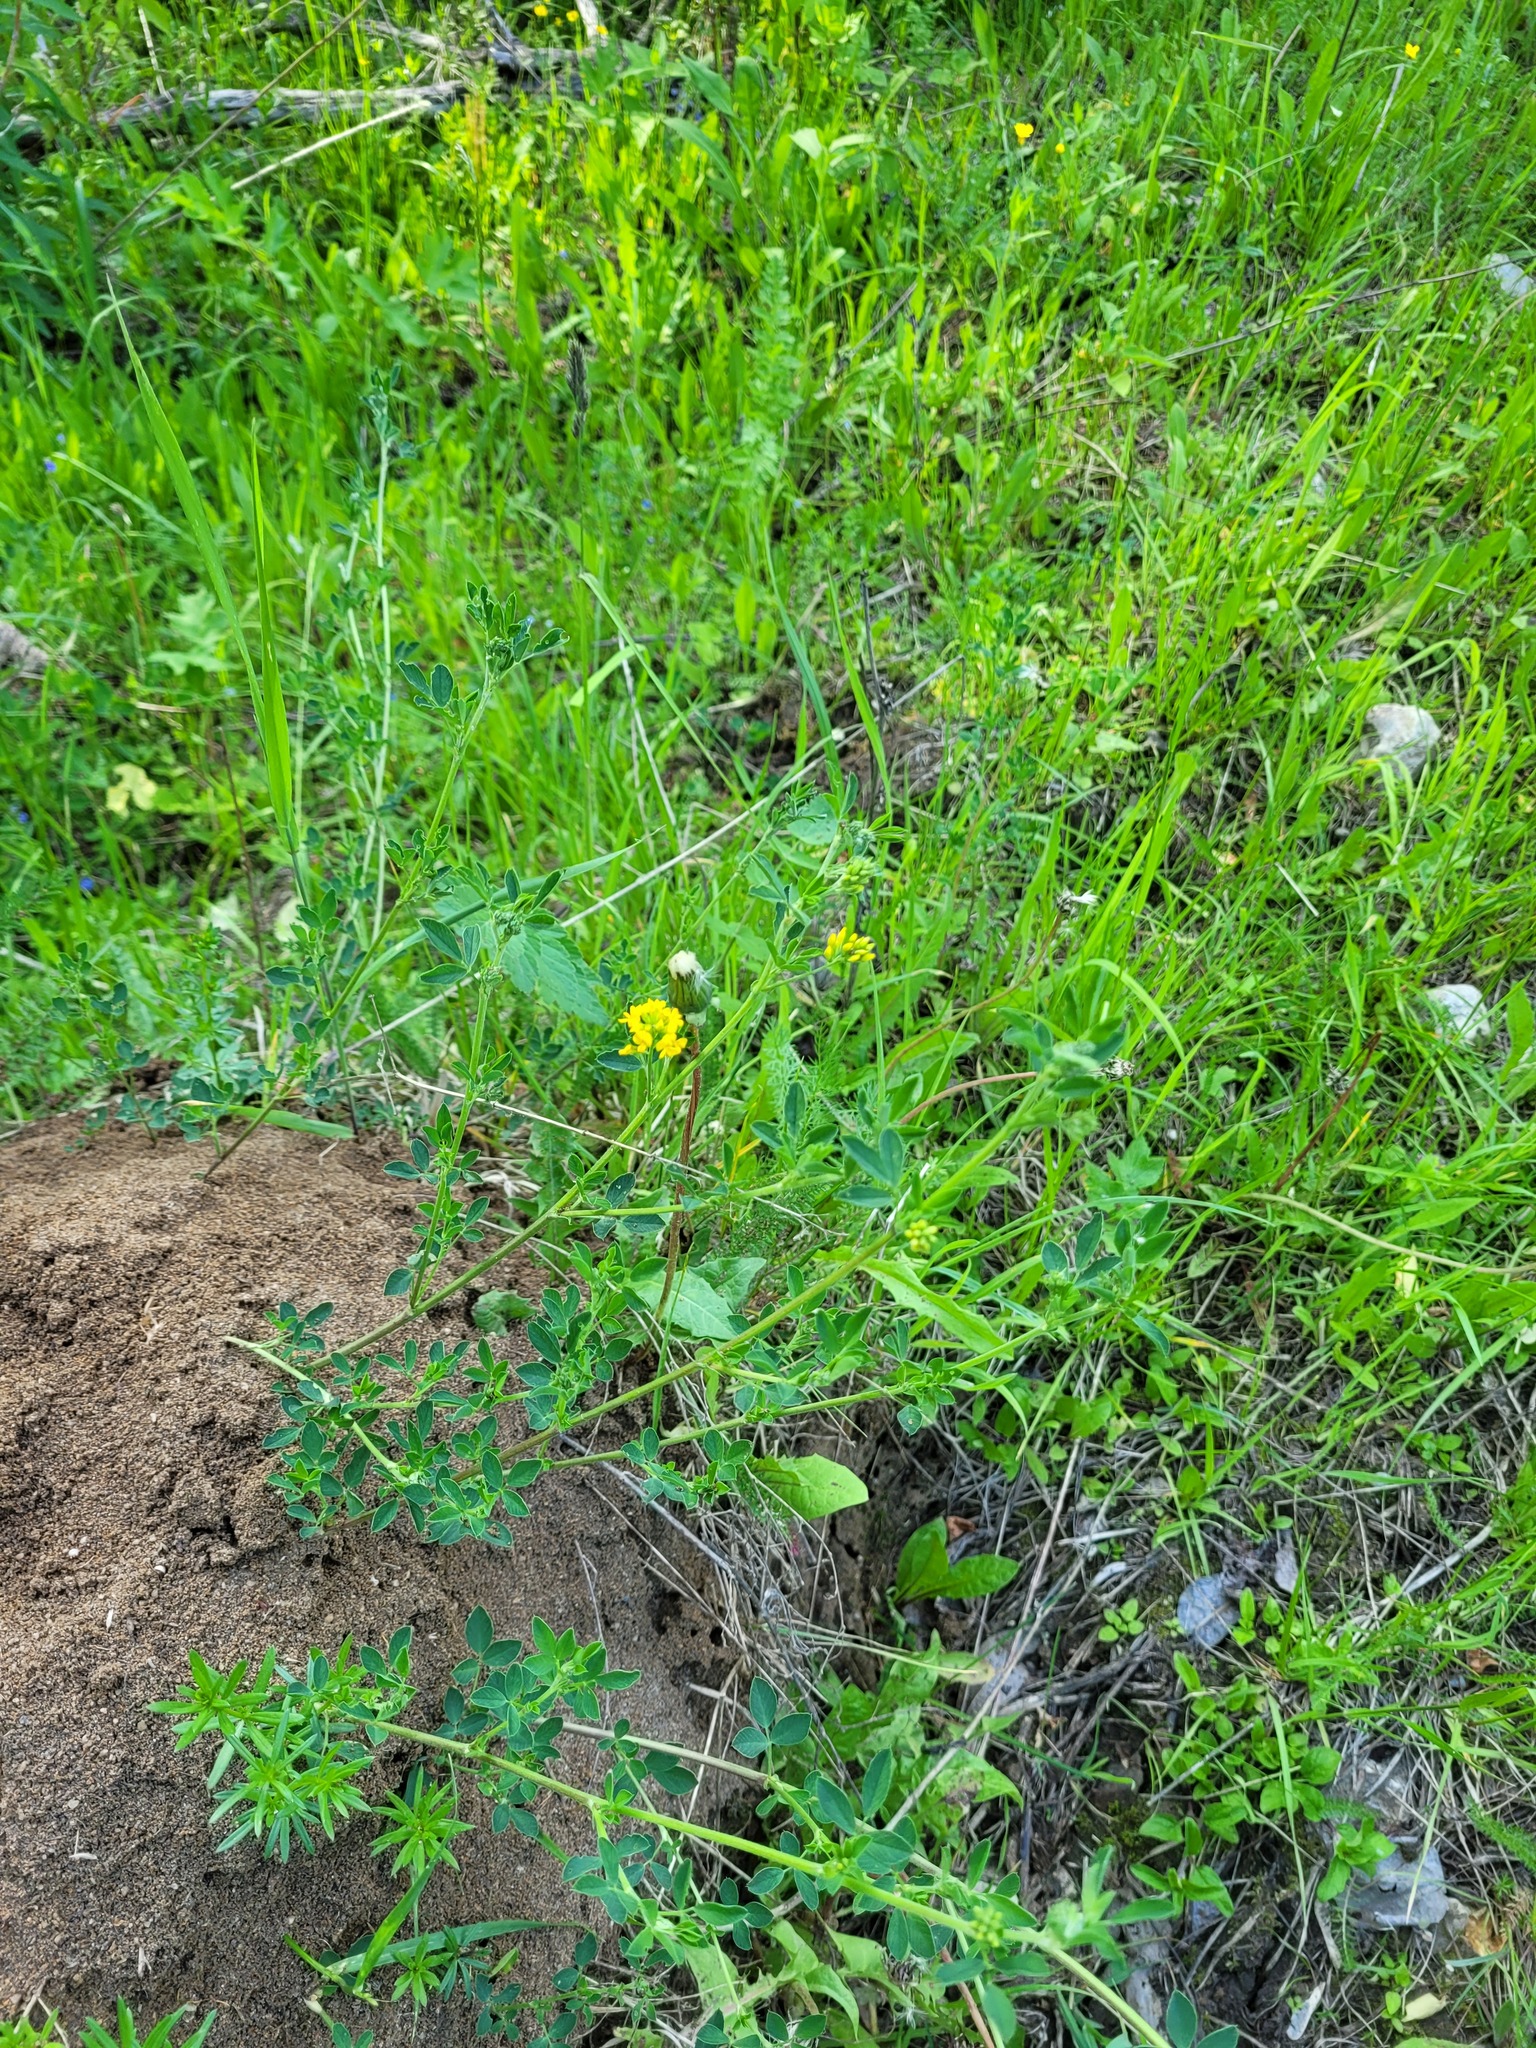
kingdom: Plantae
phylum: Tracheophyta
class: Magnoliopsida
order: Fabales
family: Fabaceae
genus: Medicago
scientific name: Medicago falcata
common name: Sickle medick
